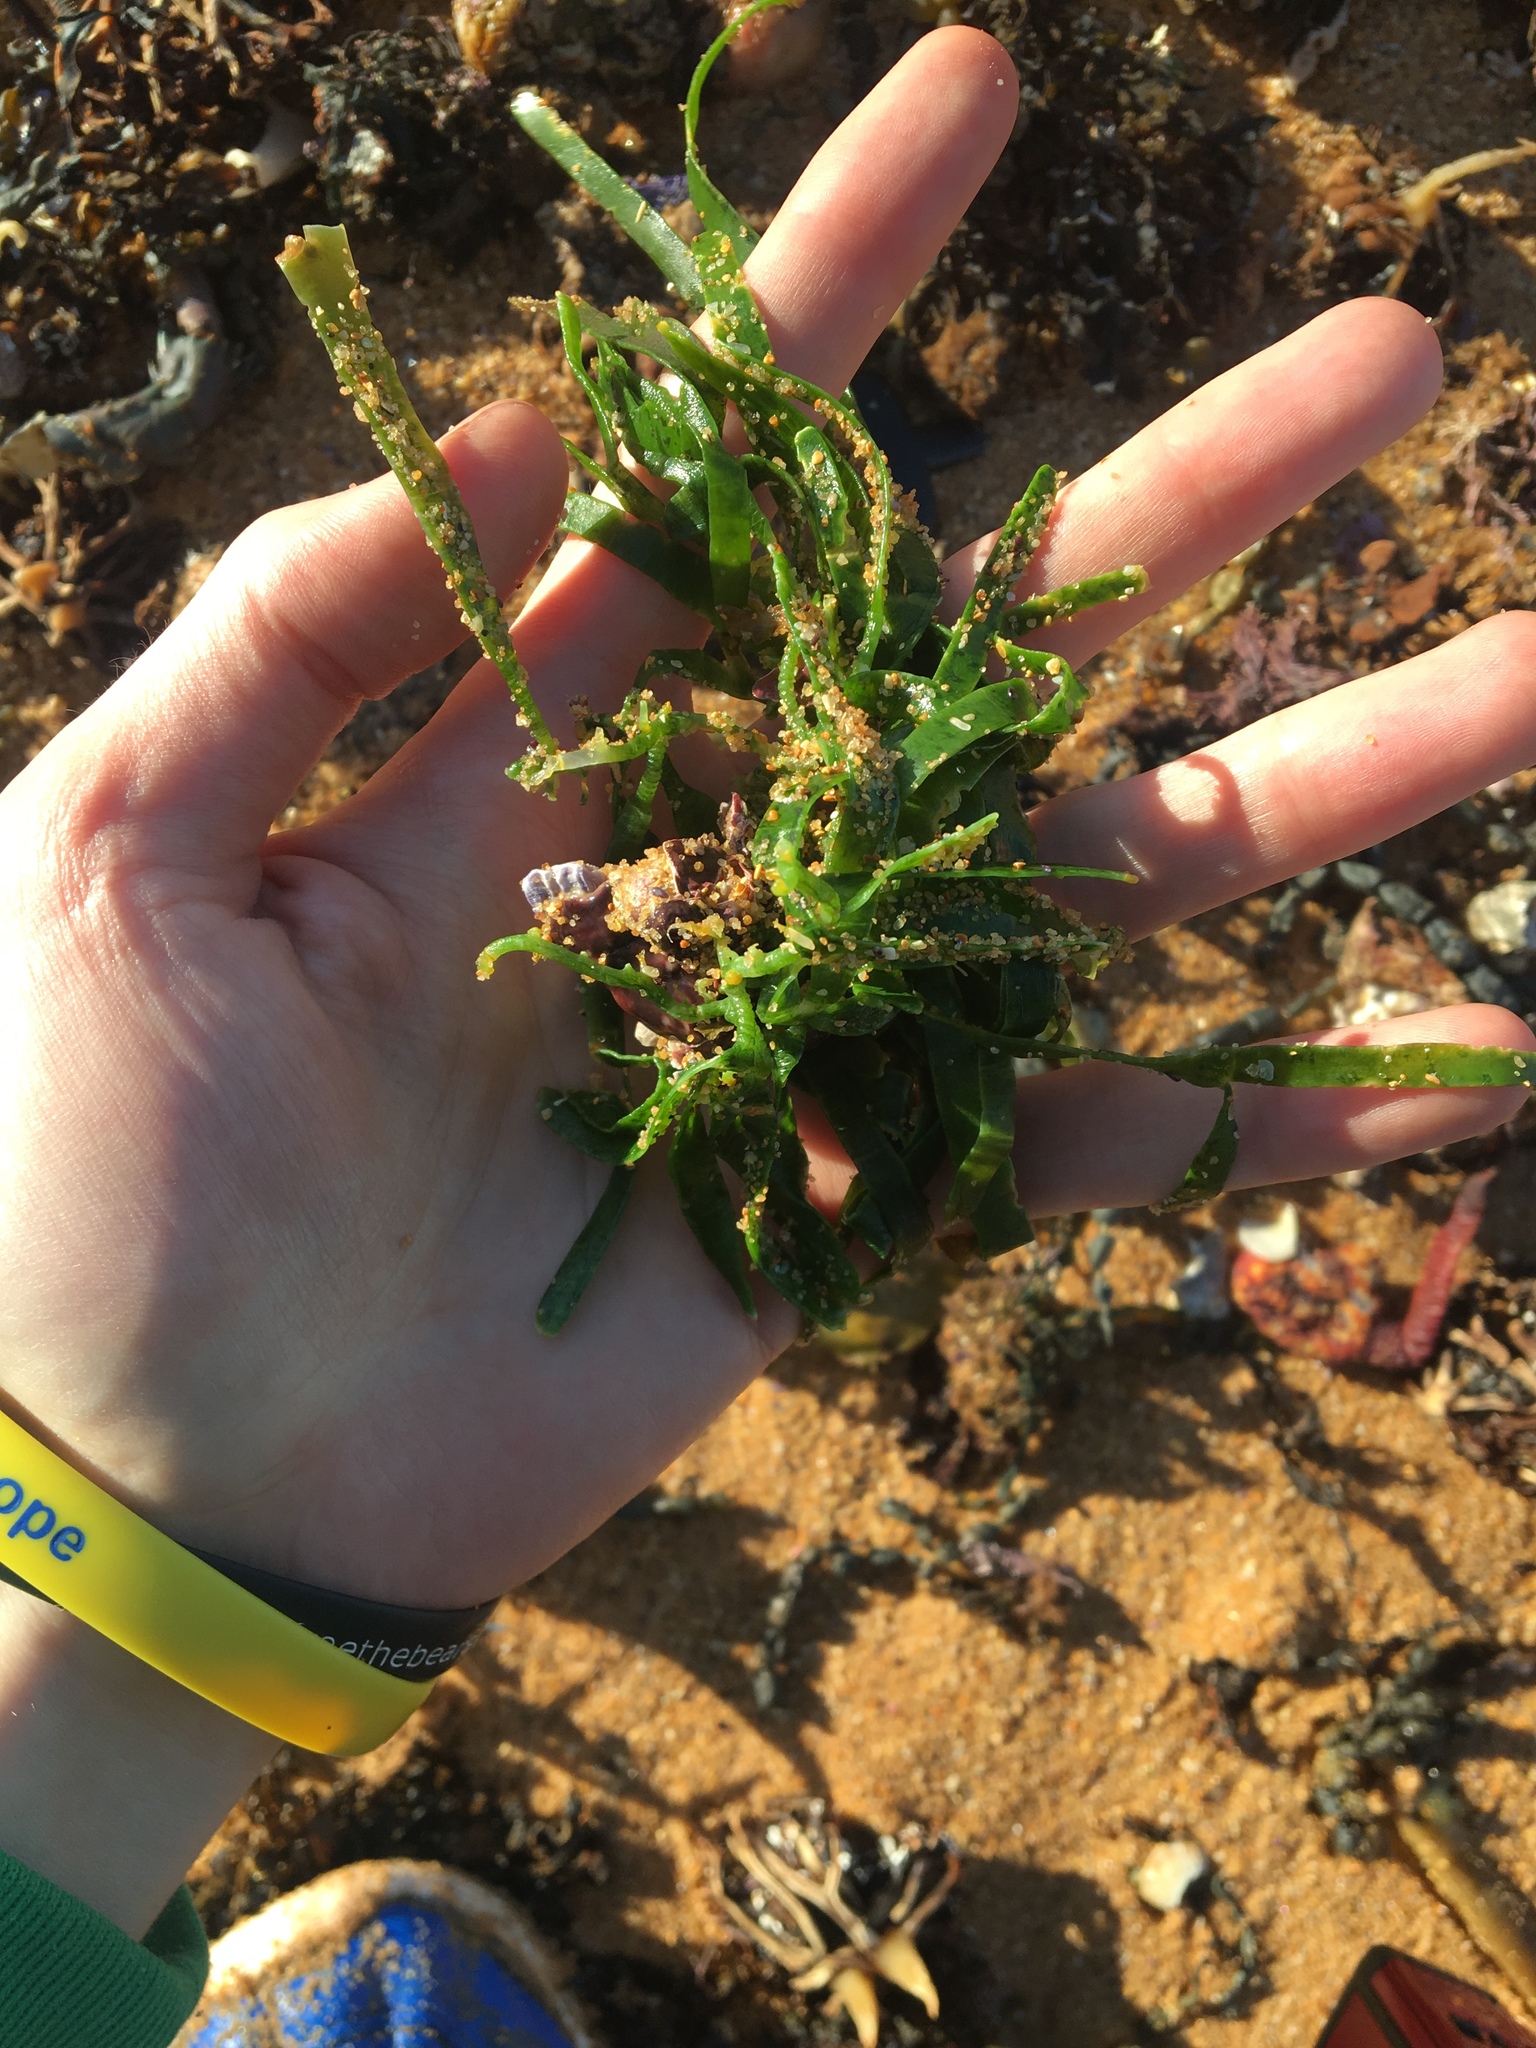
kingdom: Plantae
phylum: Chlorophyta
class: Ulvophyceae
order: Bryopsidales
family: Caulerpaceae
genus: Caulerpa
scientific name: Caulerpa filiformis
